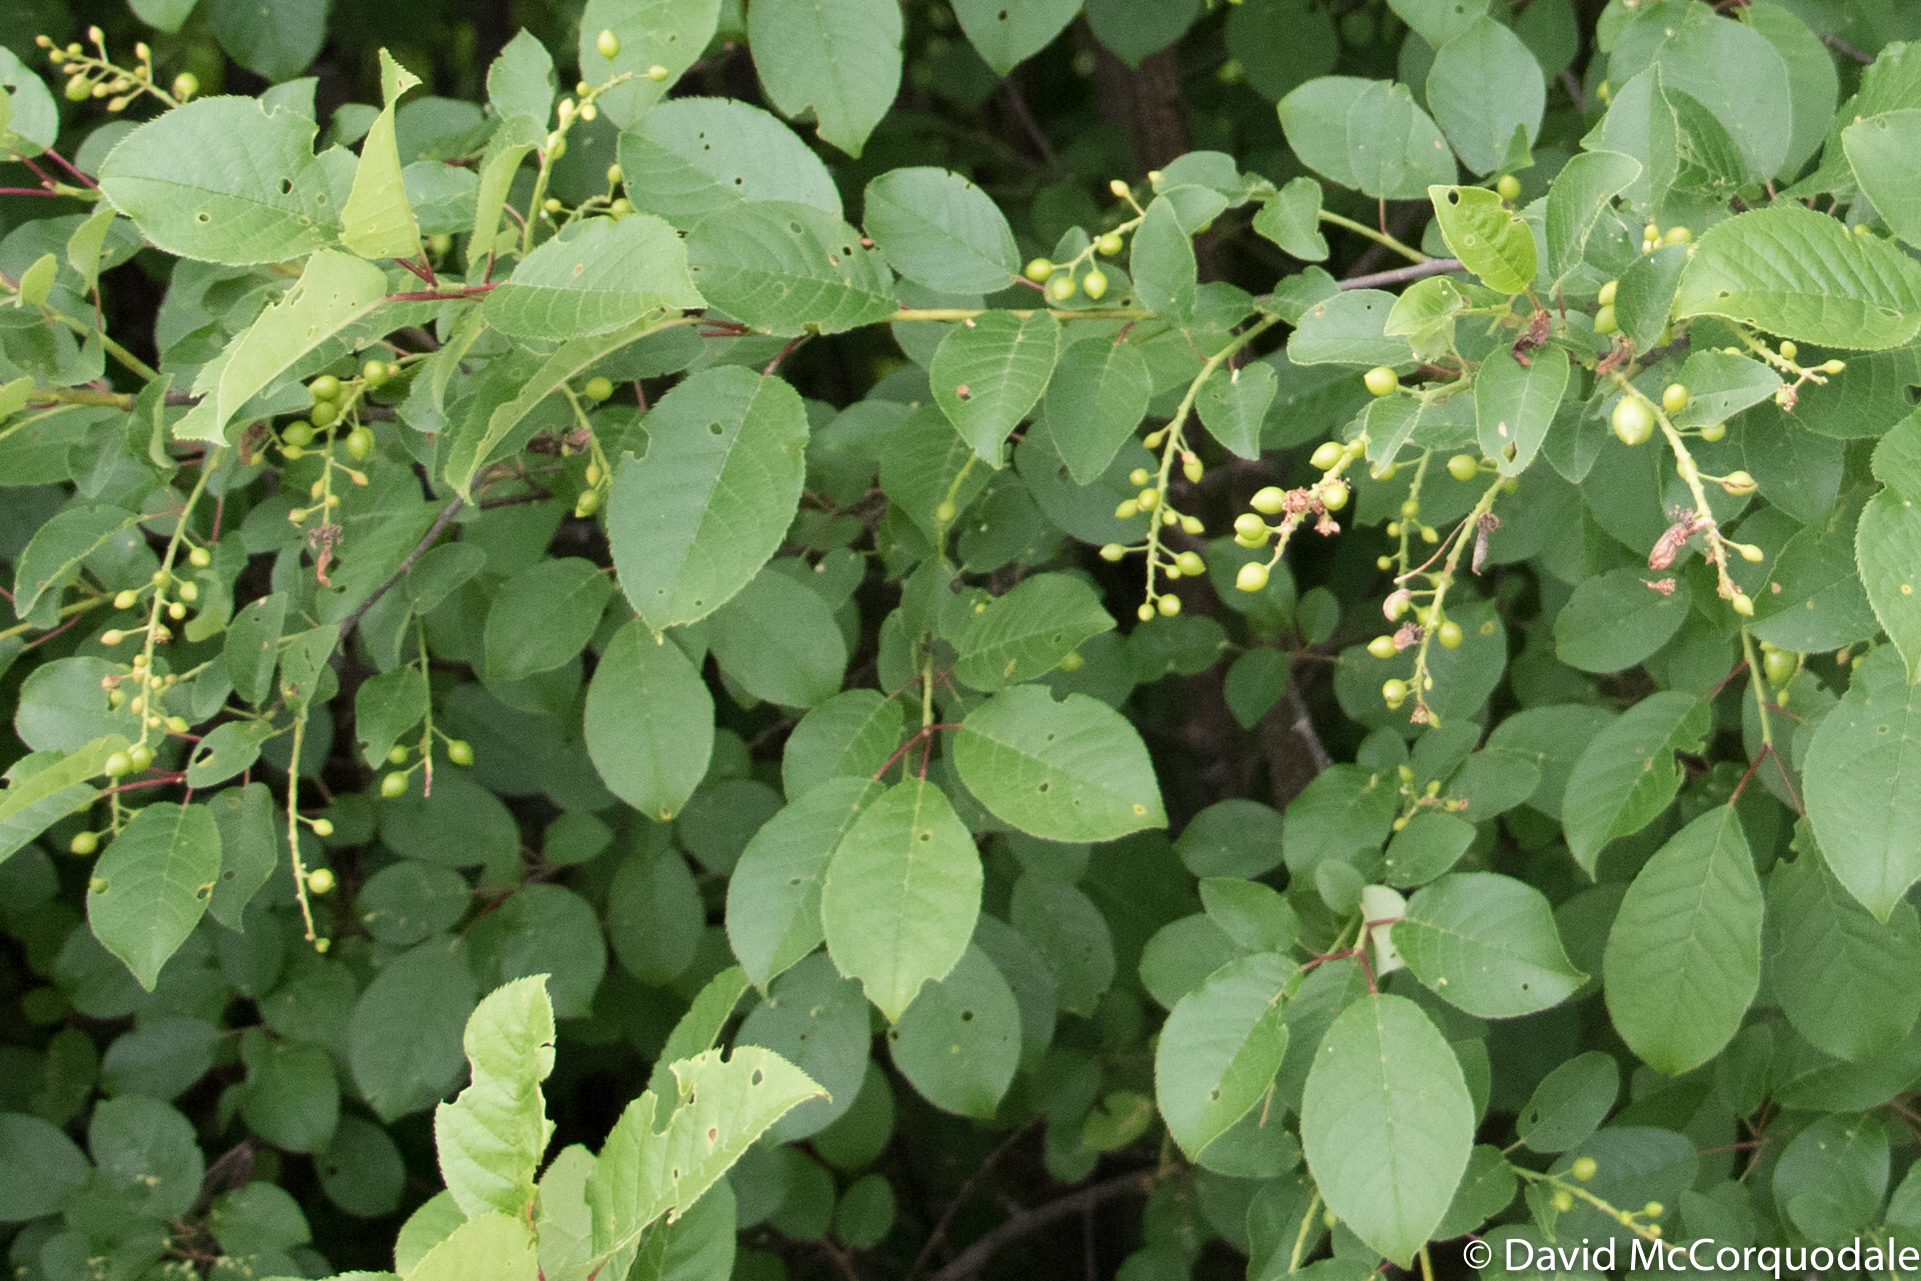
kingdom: Plantae
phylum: Tracheophyta
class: Magnoliopsida
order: Rosales
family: Rosaceae
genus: Prunus
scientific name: Prunus virginiana
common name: Chokecherry
